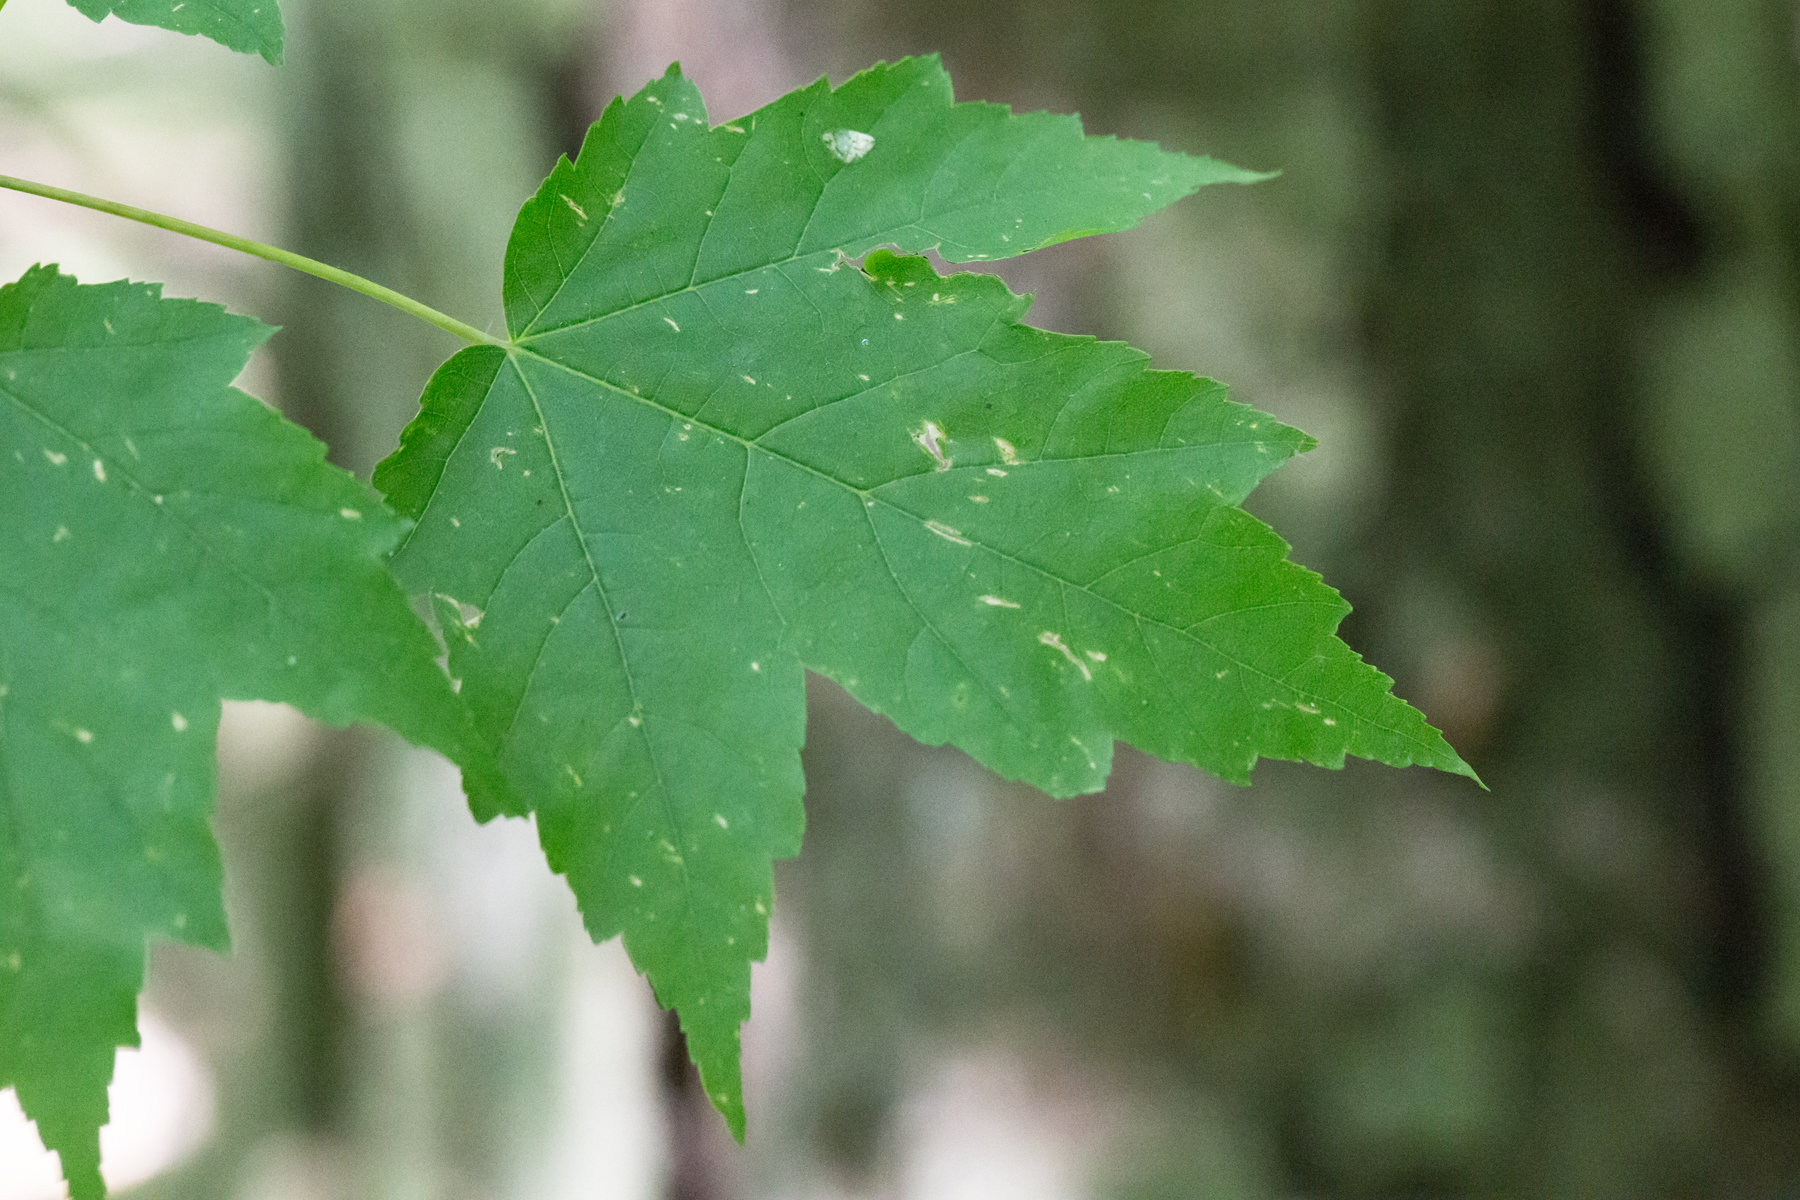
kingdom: Plantae
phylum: Tracheophyta
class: Magnoliopsida
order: Sapindales
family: Sapindaceae
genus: Acer
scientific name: Acer rubrum
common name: Red maple
